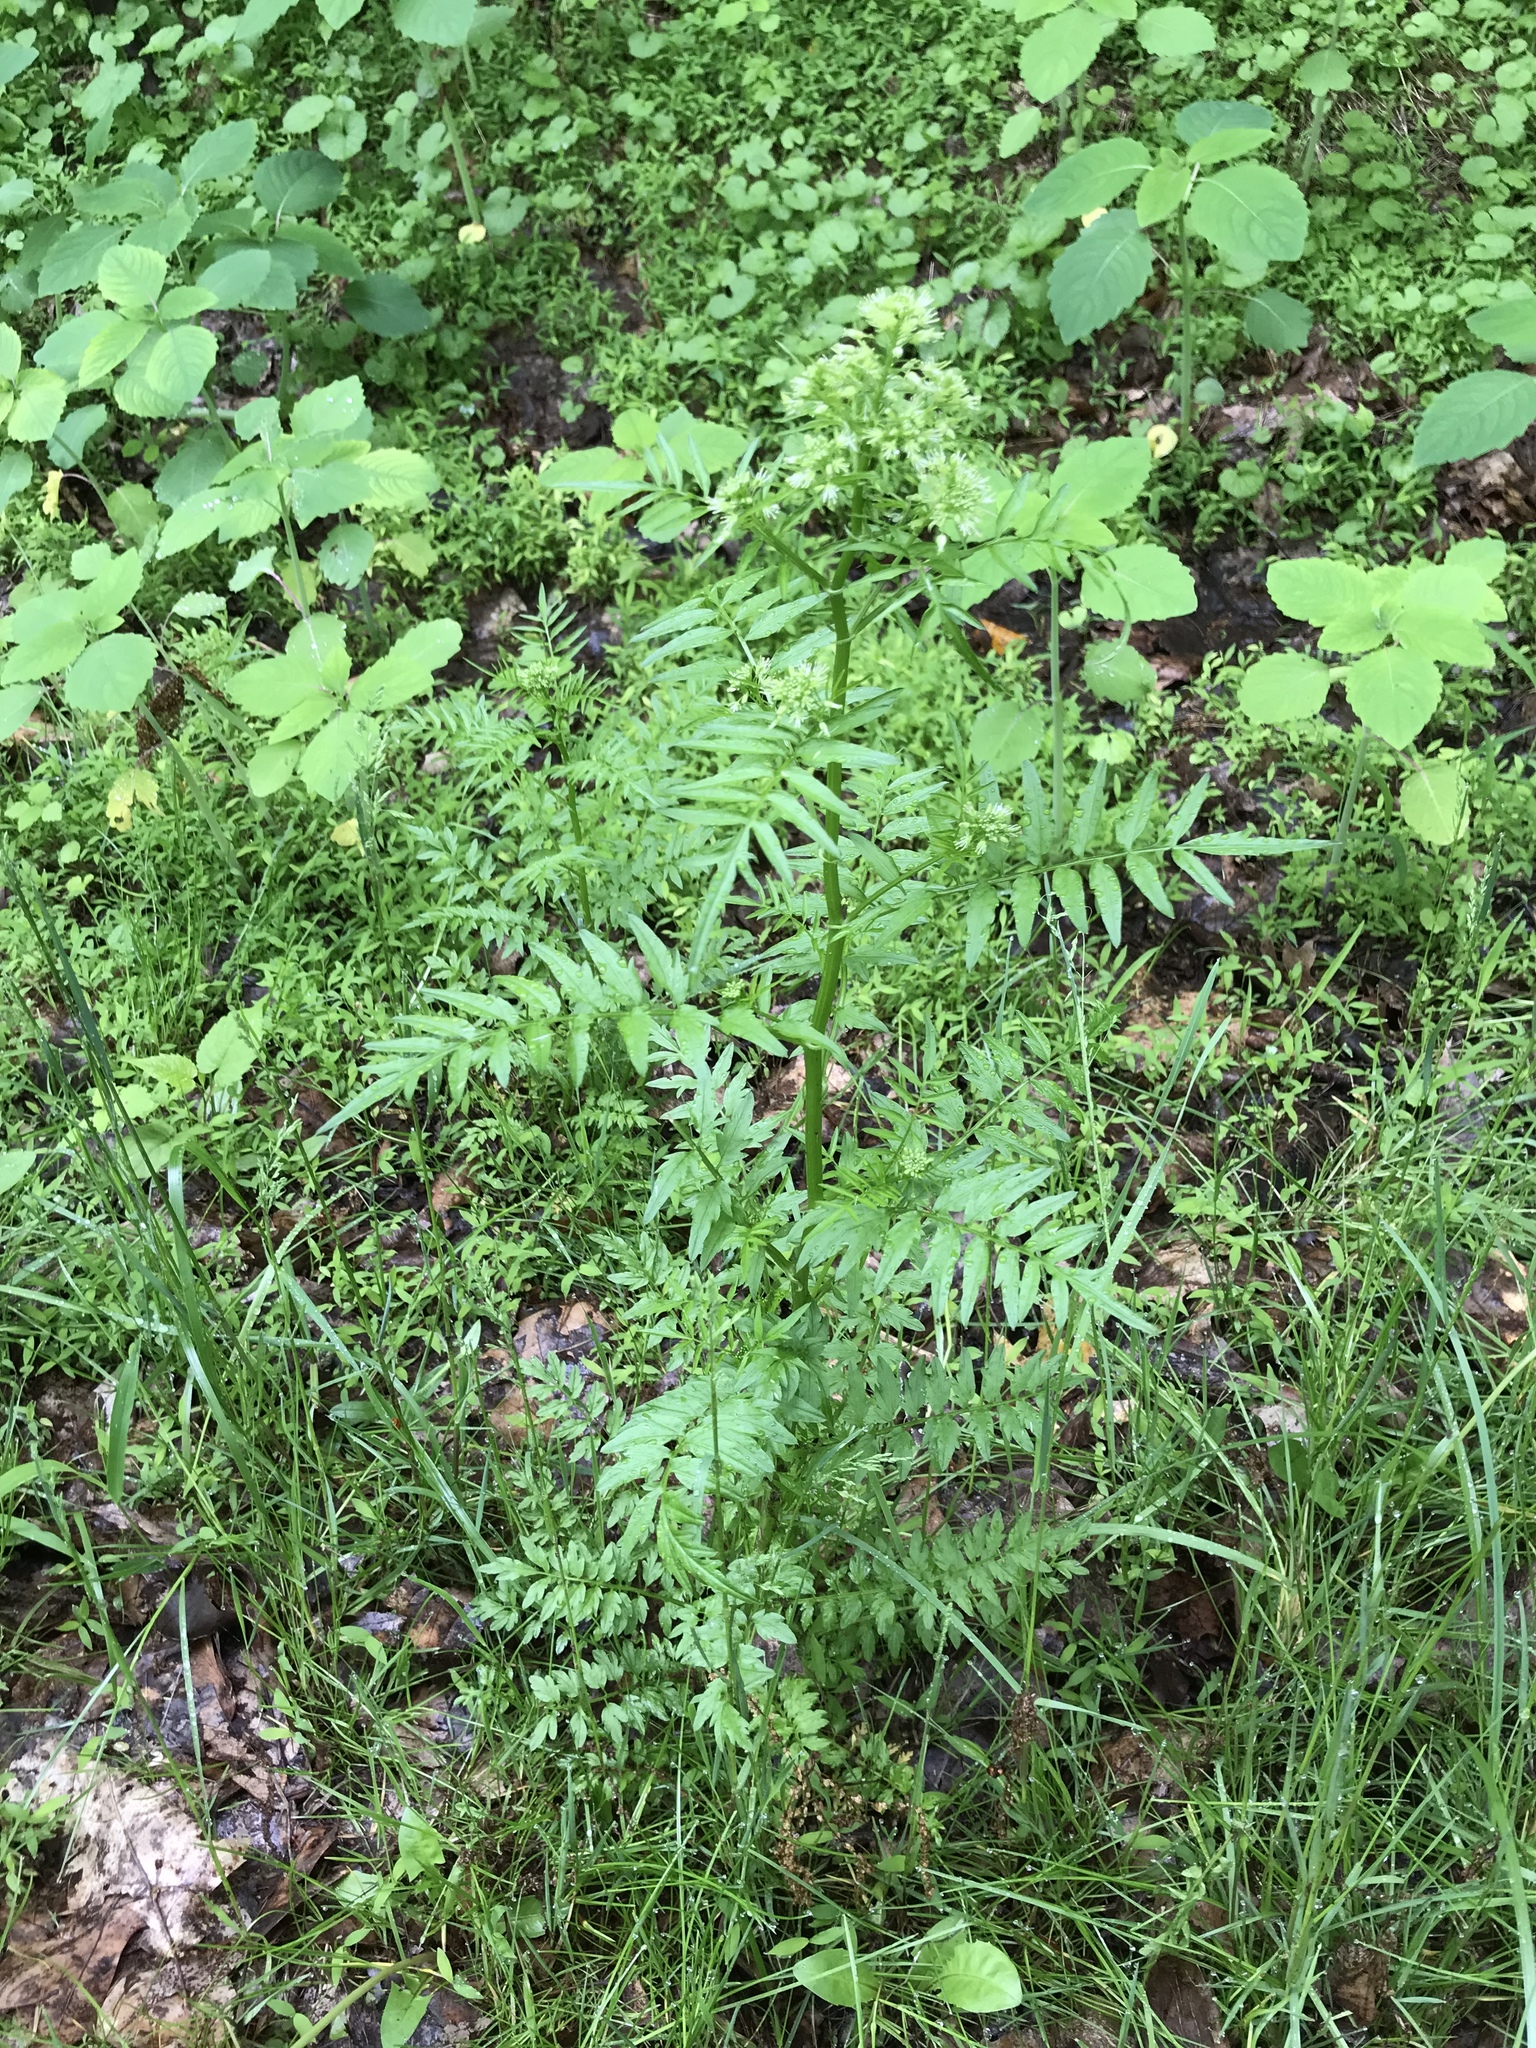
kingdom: Plantae
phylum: Tracheophyta
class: Magnoliopsida
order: Brassicales
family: Brassicaceae
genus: Cardamine
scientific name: Cardamine impatiens
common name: Narrow-leaved bitter-cress
